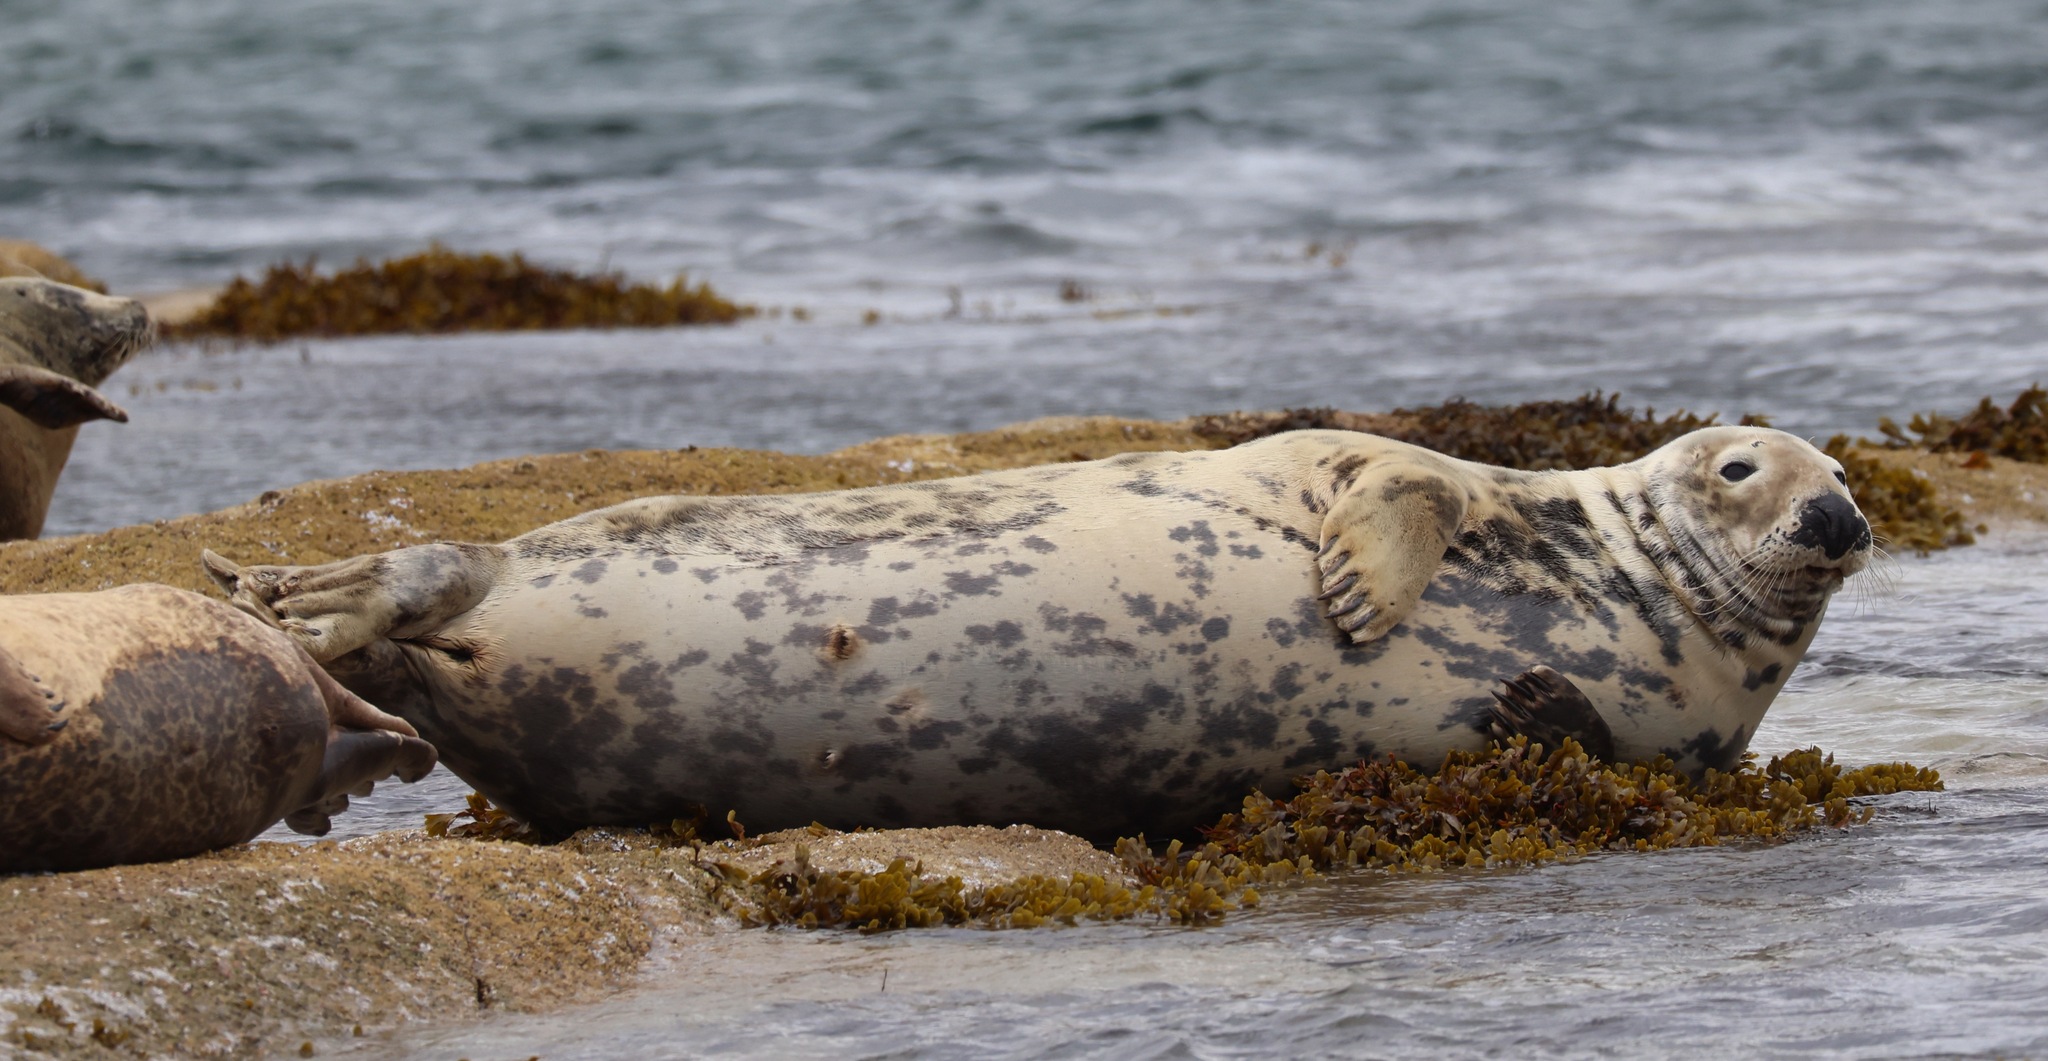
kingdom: Animalia
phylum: Chordata
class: Mammalia
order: Carnivora
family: Phocidae
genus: Halichoerus
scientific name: Halichoerus grypus
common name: Grey seal
